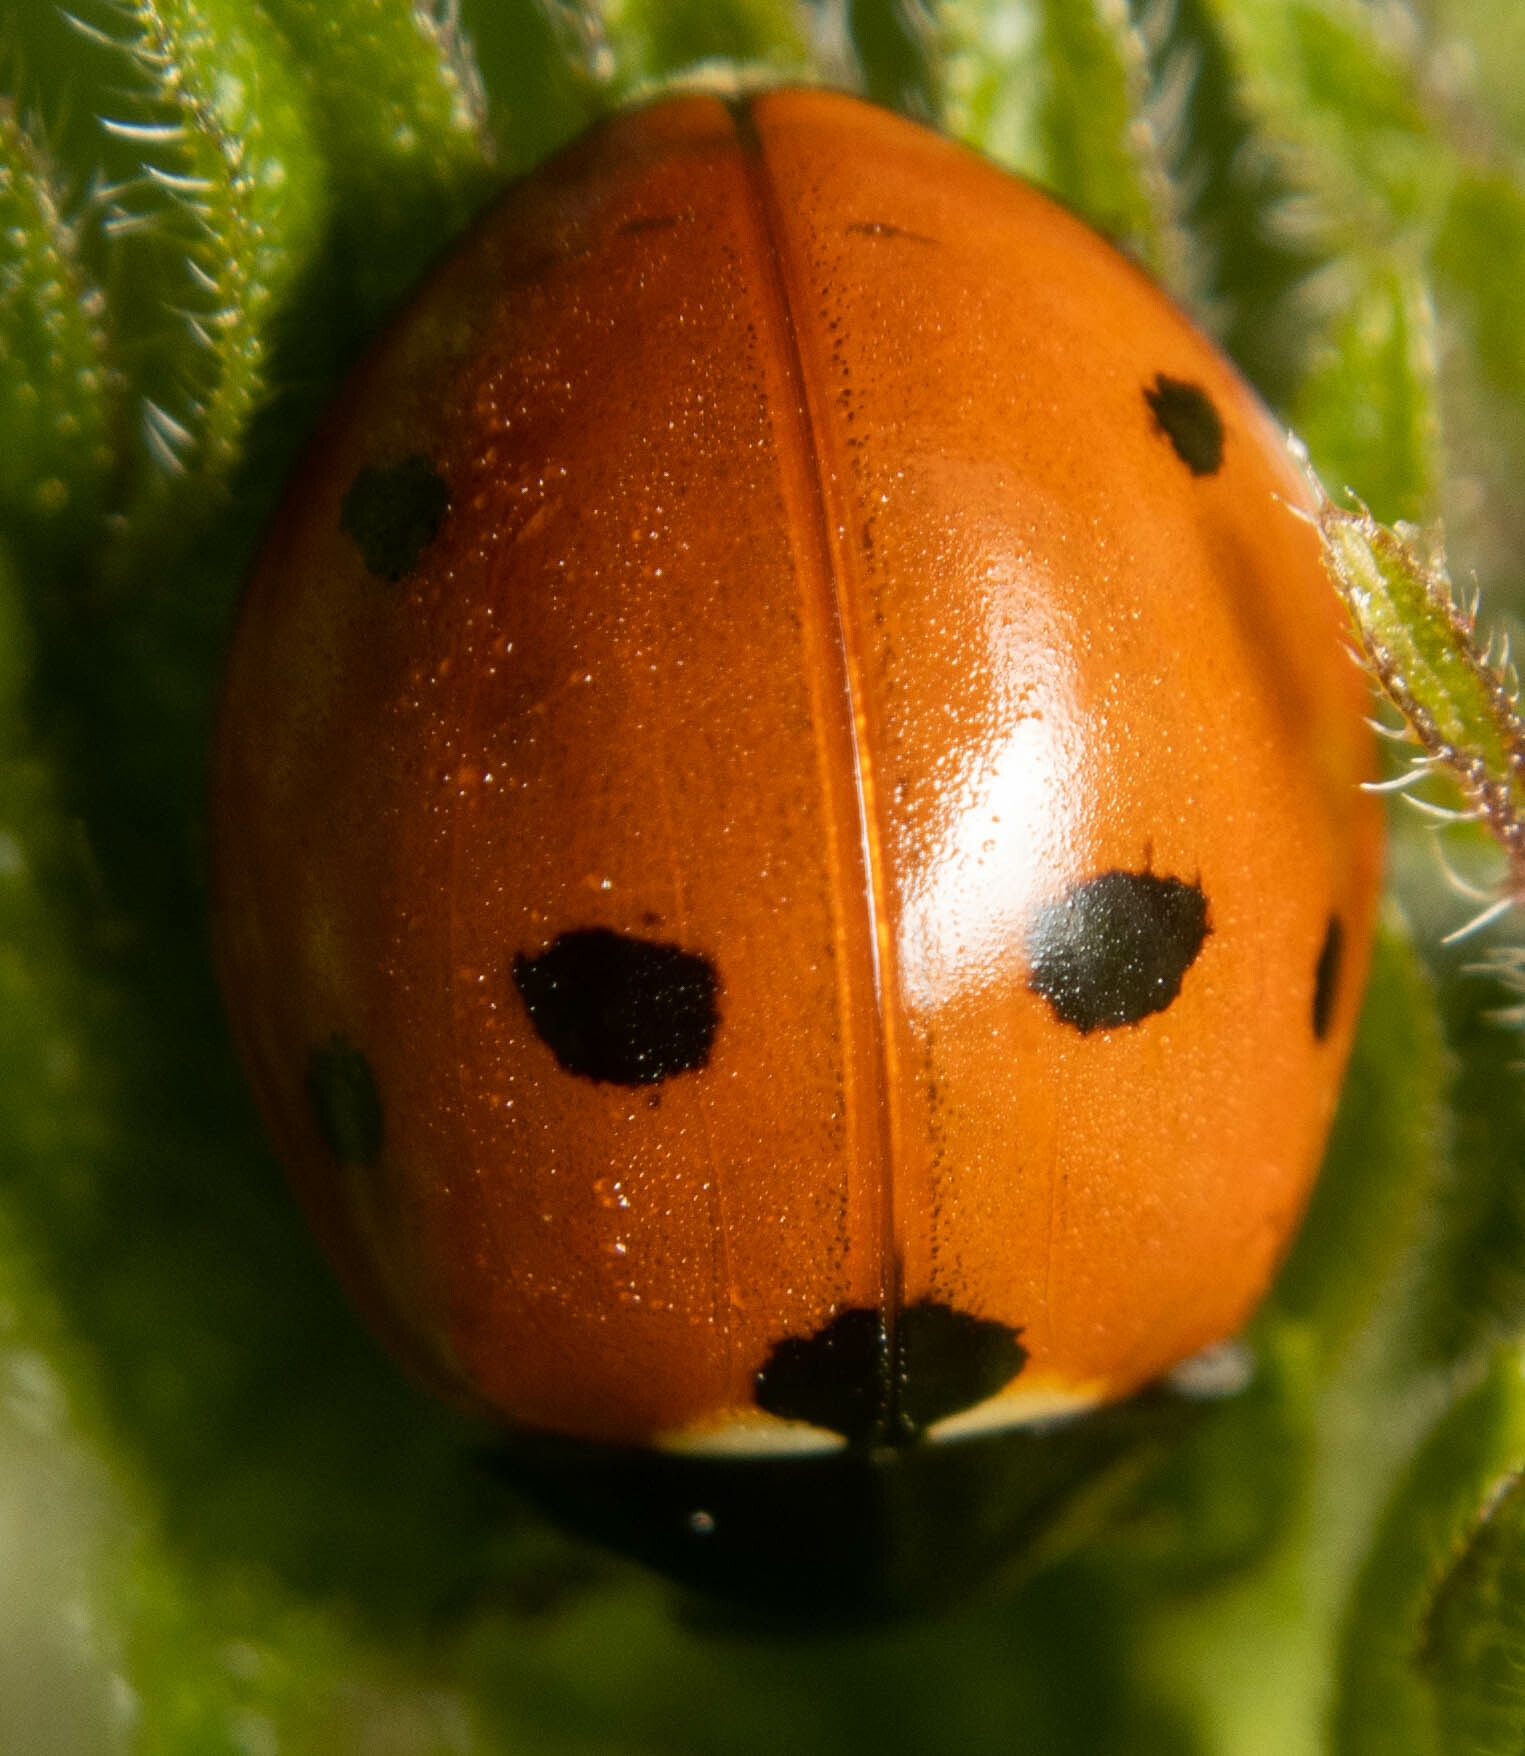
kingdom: Animalia
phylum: Arthropoda
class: Insecta
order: Coleoptera
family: Coccinellidae
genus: Coccinella
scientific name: Coccinella septempunctata
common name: Sevenspotted lady beetle
